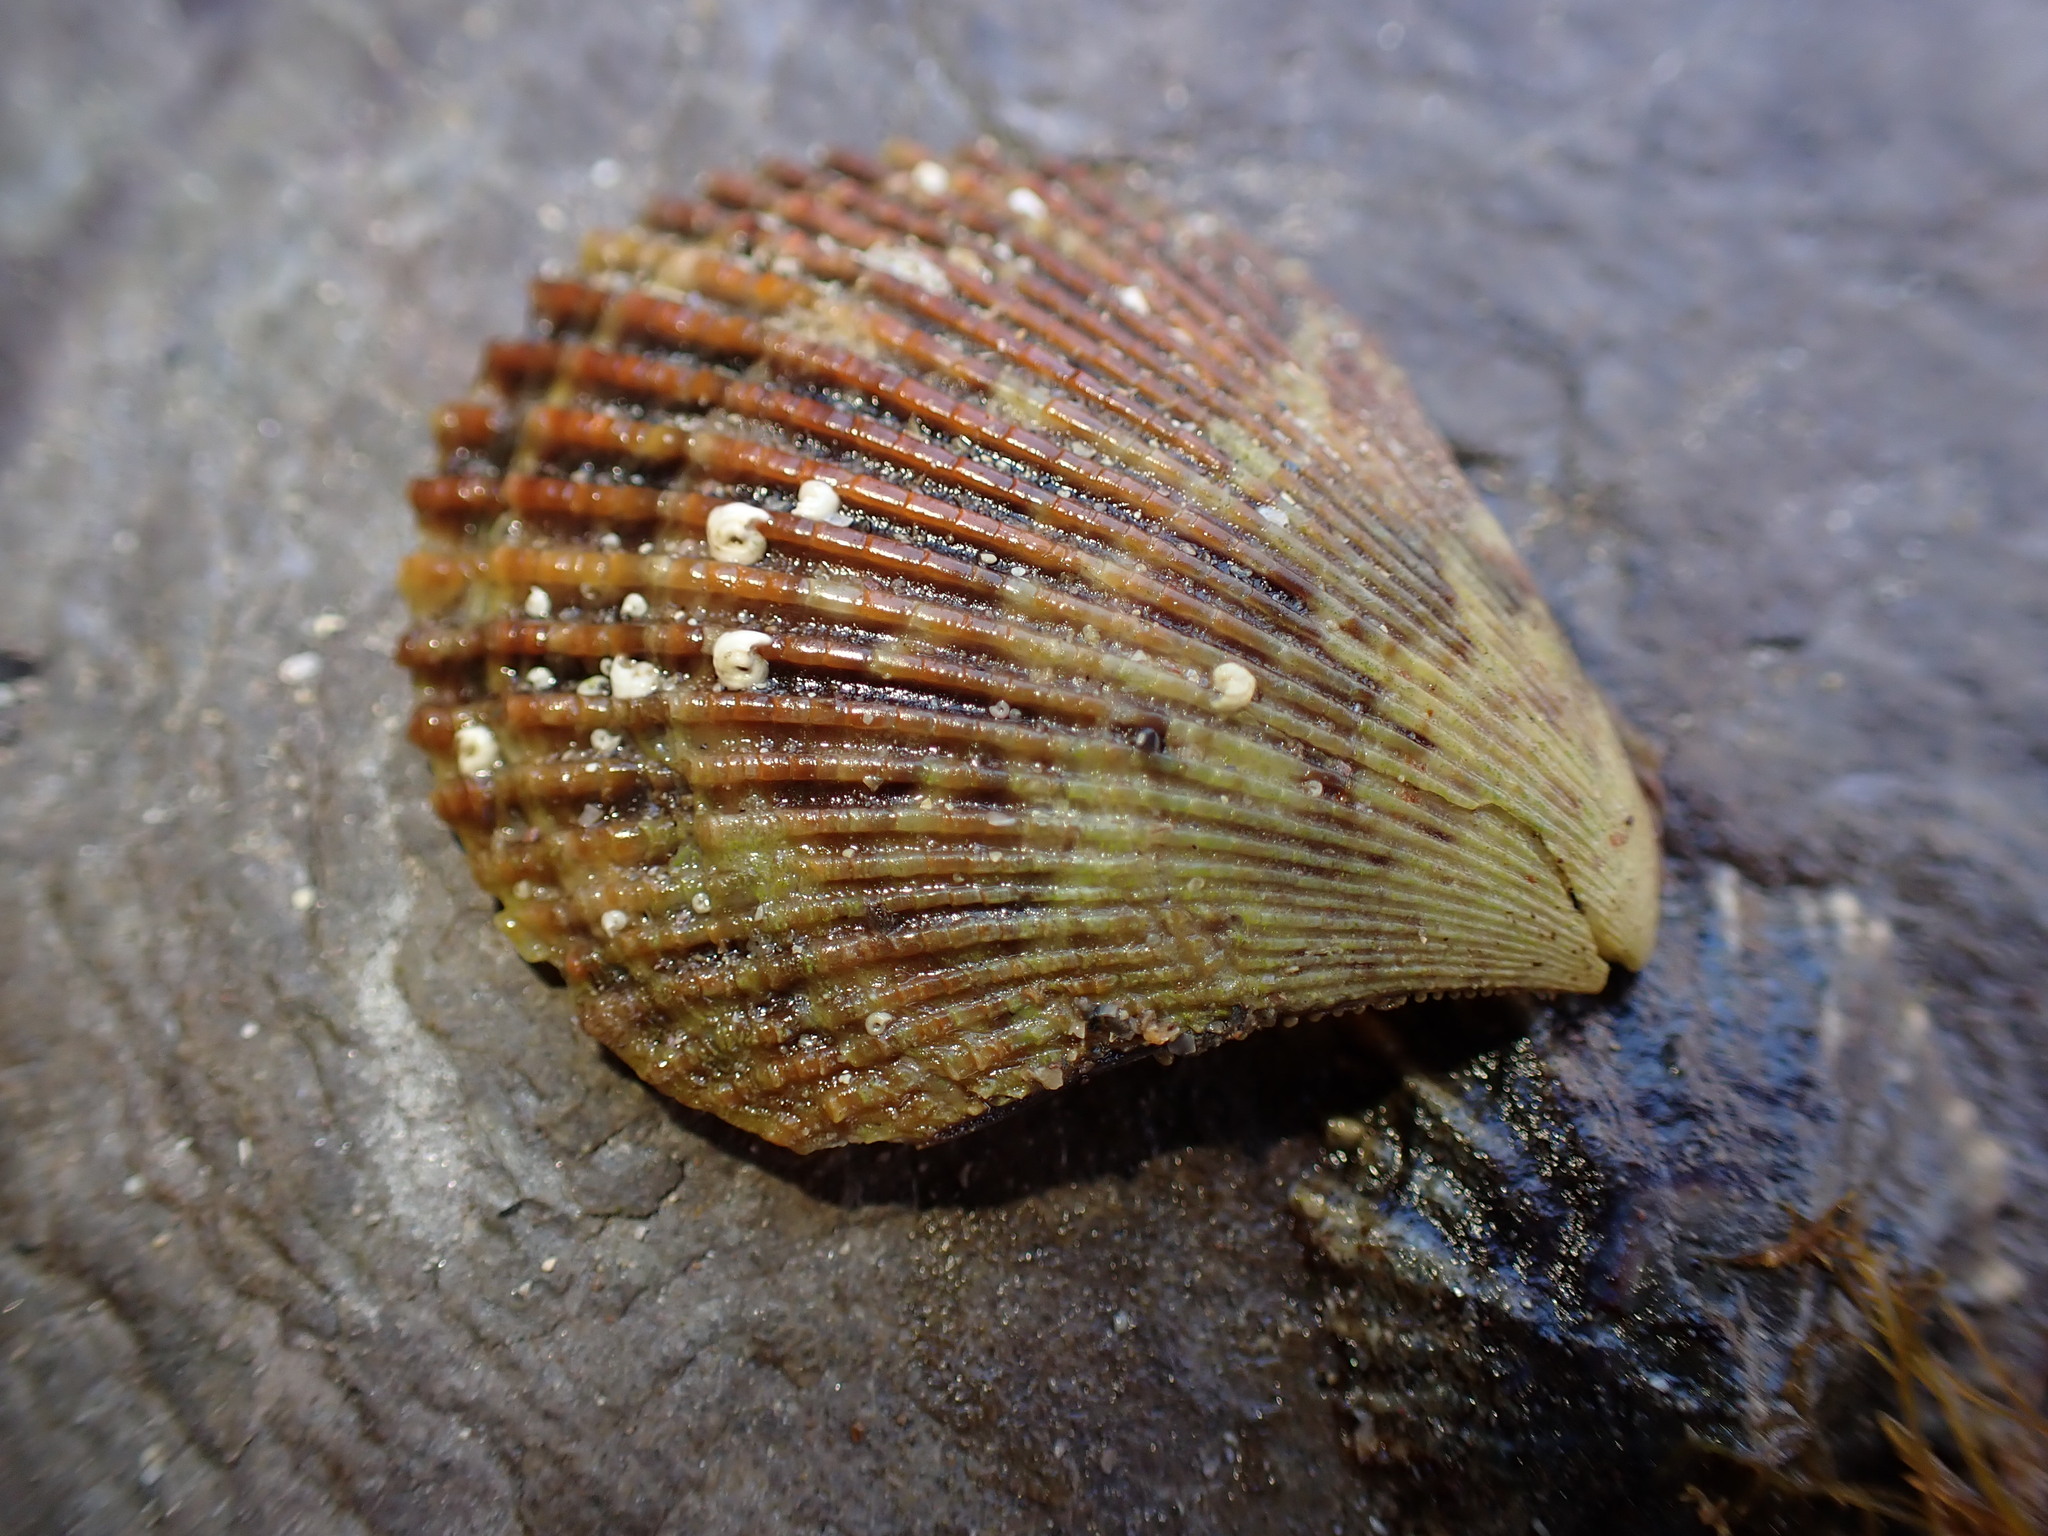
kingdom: Animalia
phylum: Mollusca
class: Bivalvia
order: Pectinida
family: Pectinidae
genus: Mimachlamys
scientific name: Mimachlamys varia
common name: Variegated scallop
